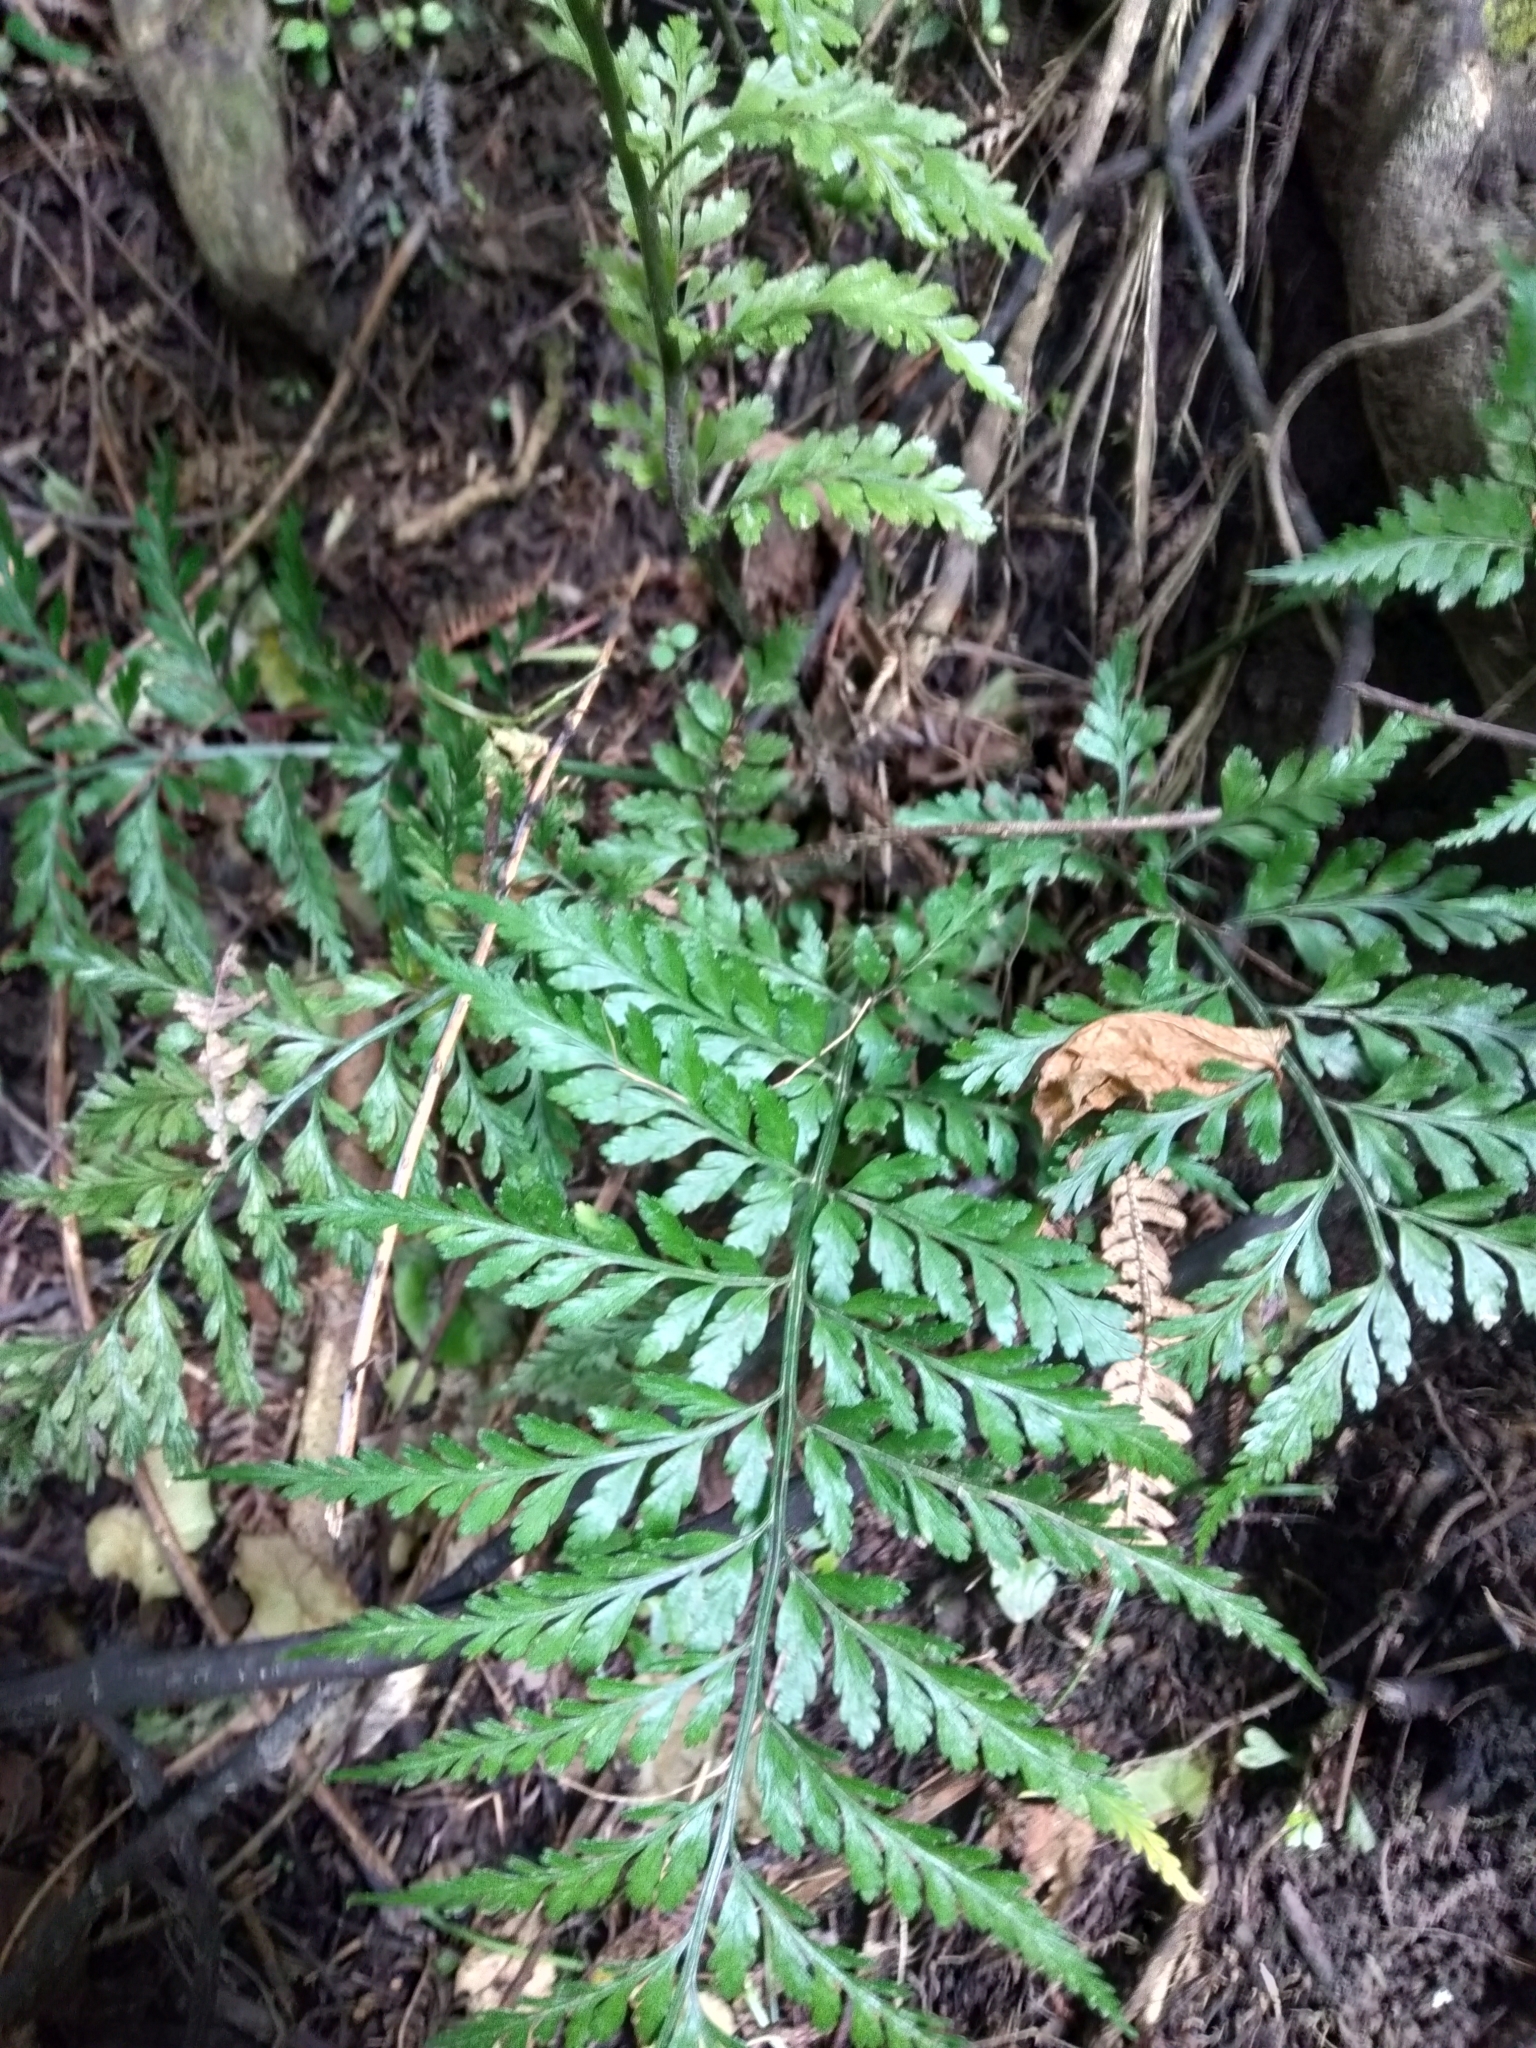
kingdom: Plantae
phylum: Tracheophyta
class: Polypodiopsida
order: Polypodiales
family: Aspleniaceae
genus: Asplenium
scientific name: Asplenium
